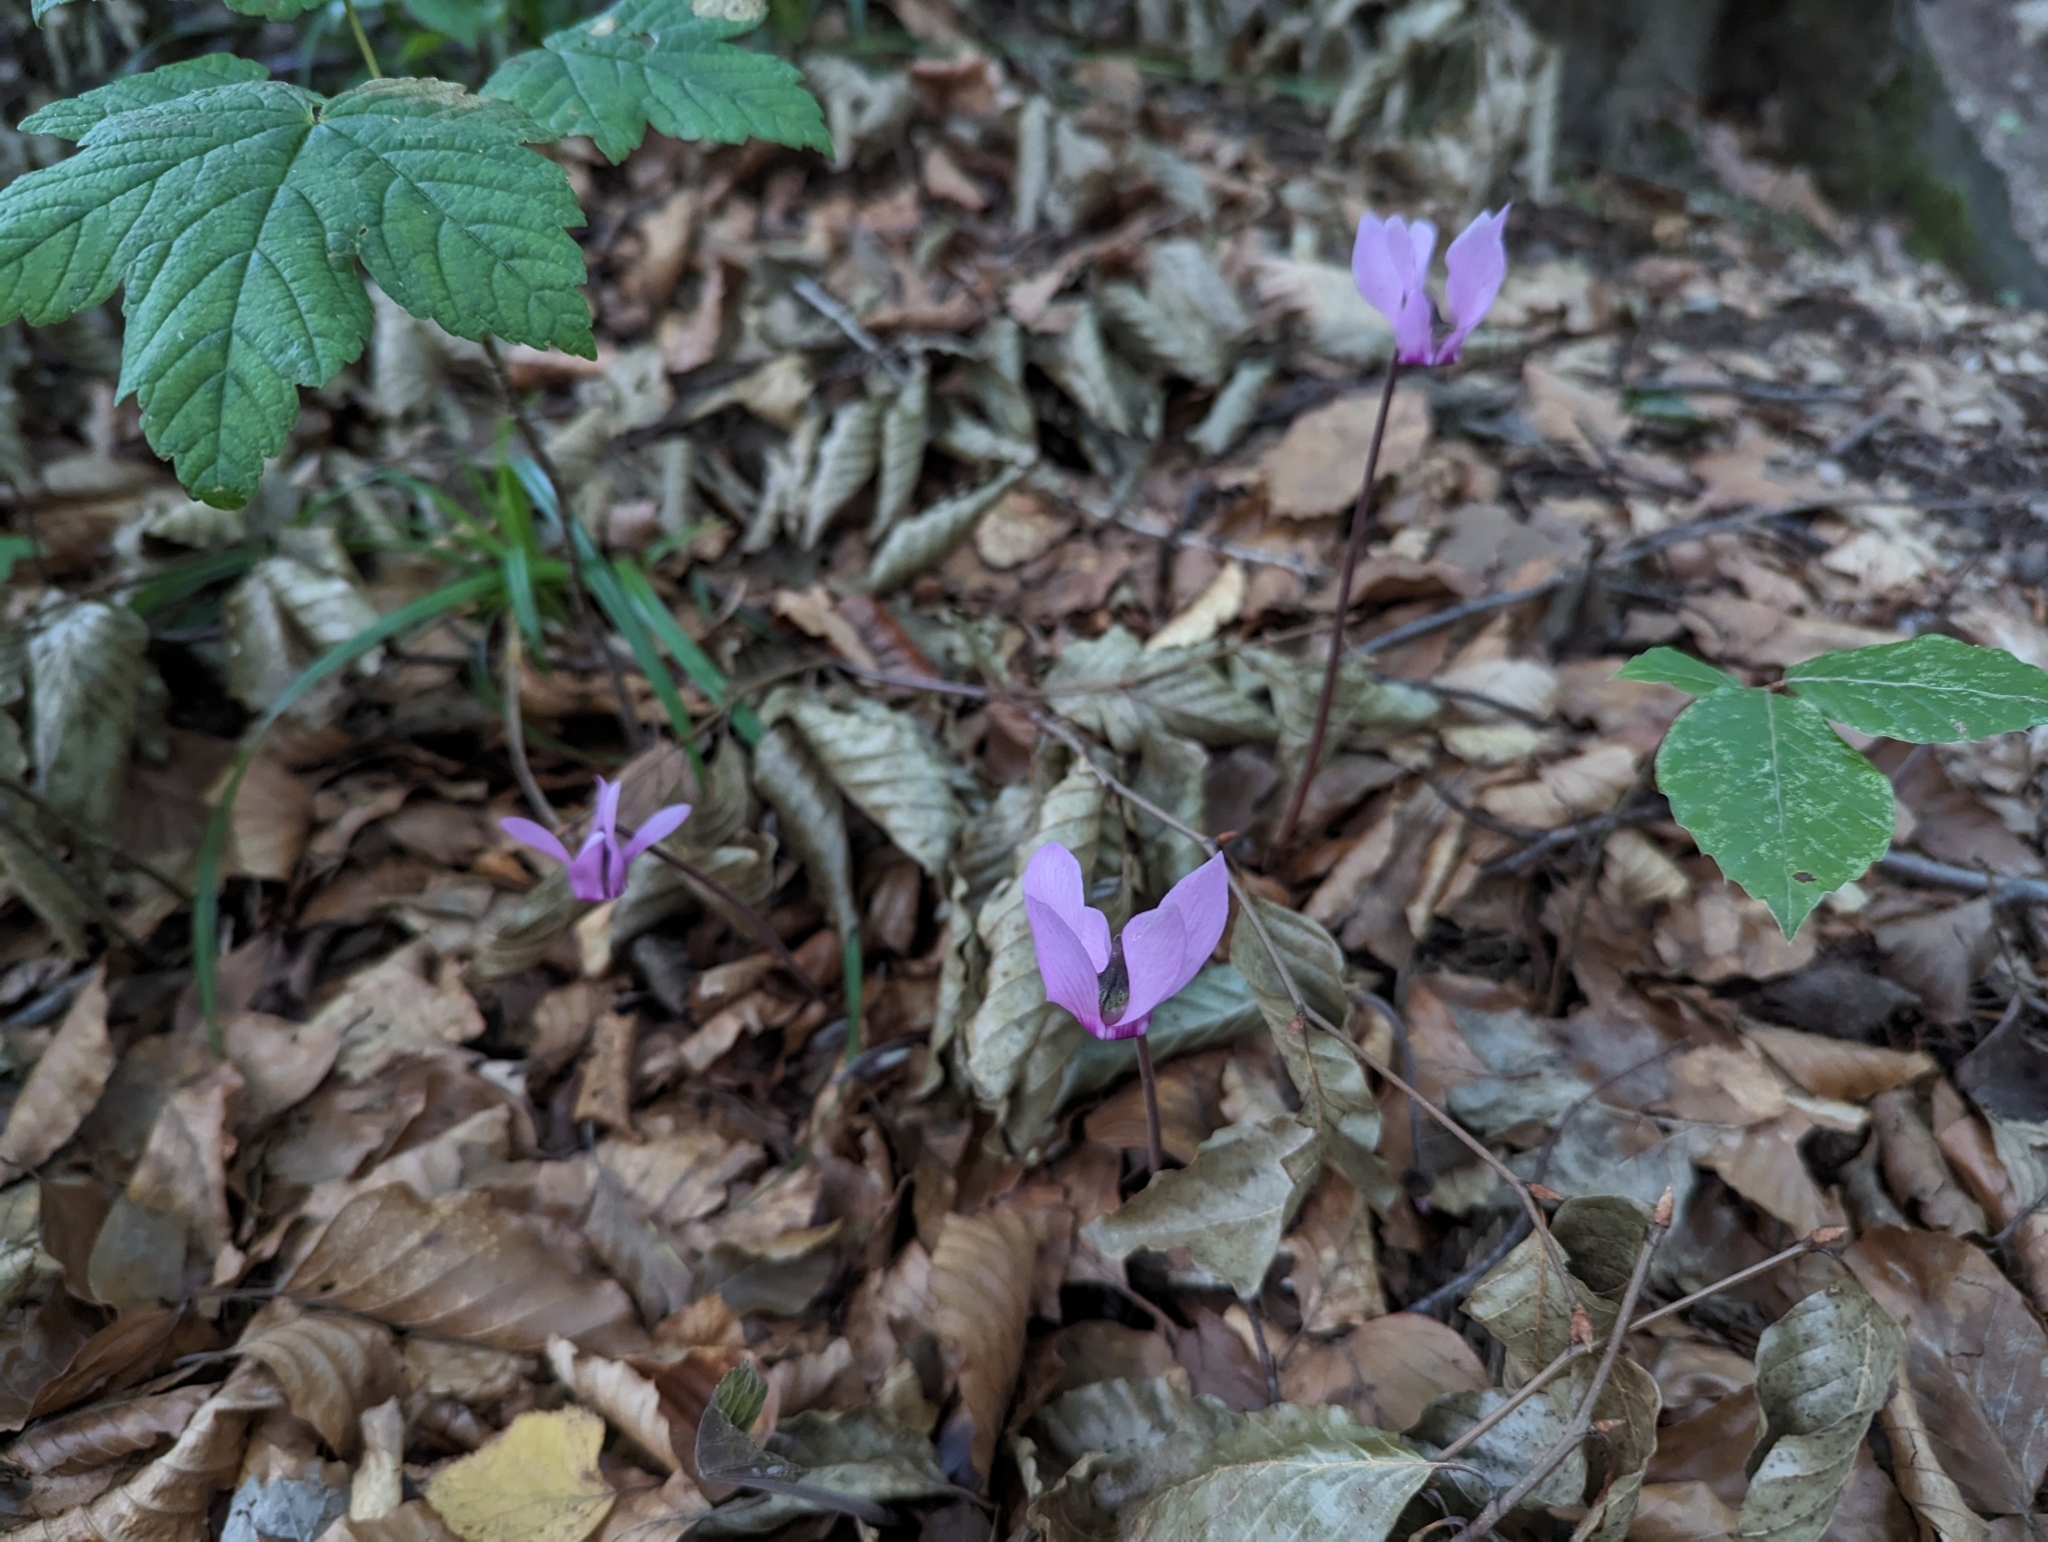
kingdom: Plantae
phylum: Tracheophyta
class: Magnoliopsida
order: Ericales
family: Primulaceae
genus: Cyclamen
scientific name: Cyclamen purpurascens
